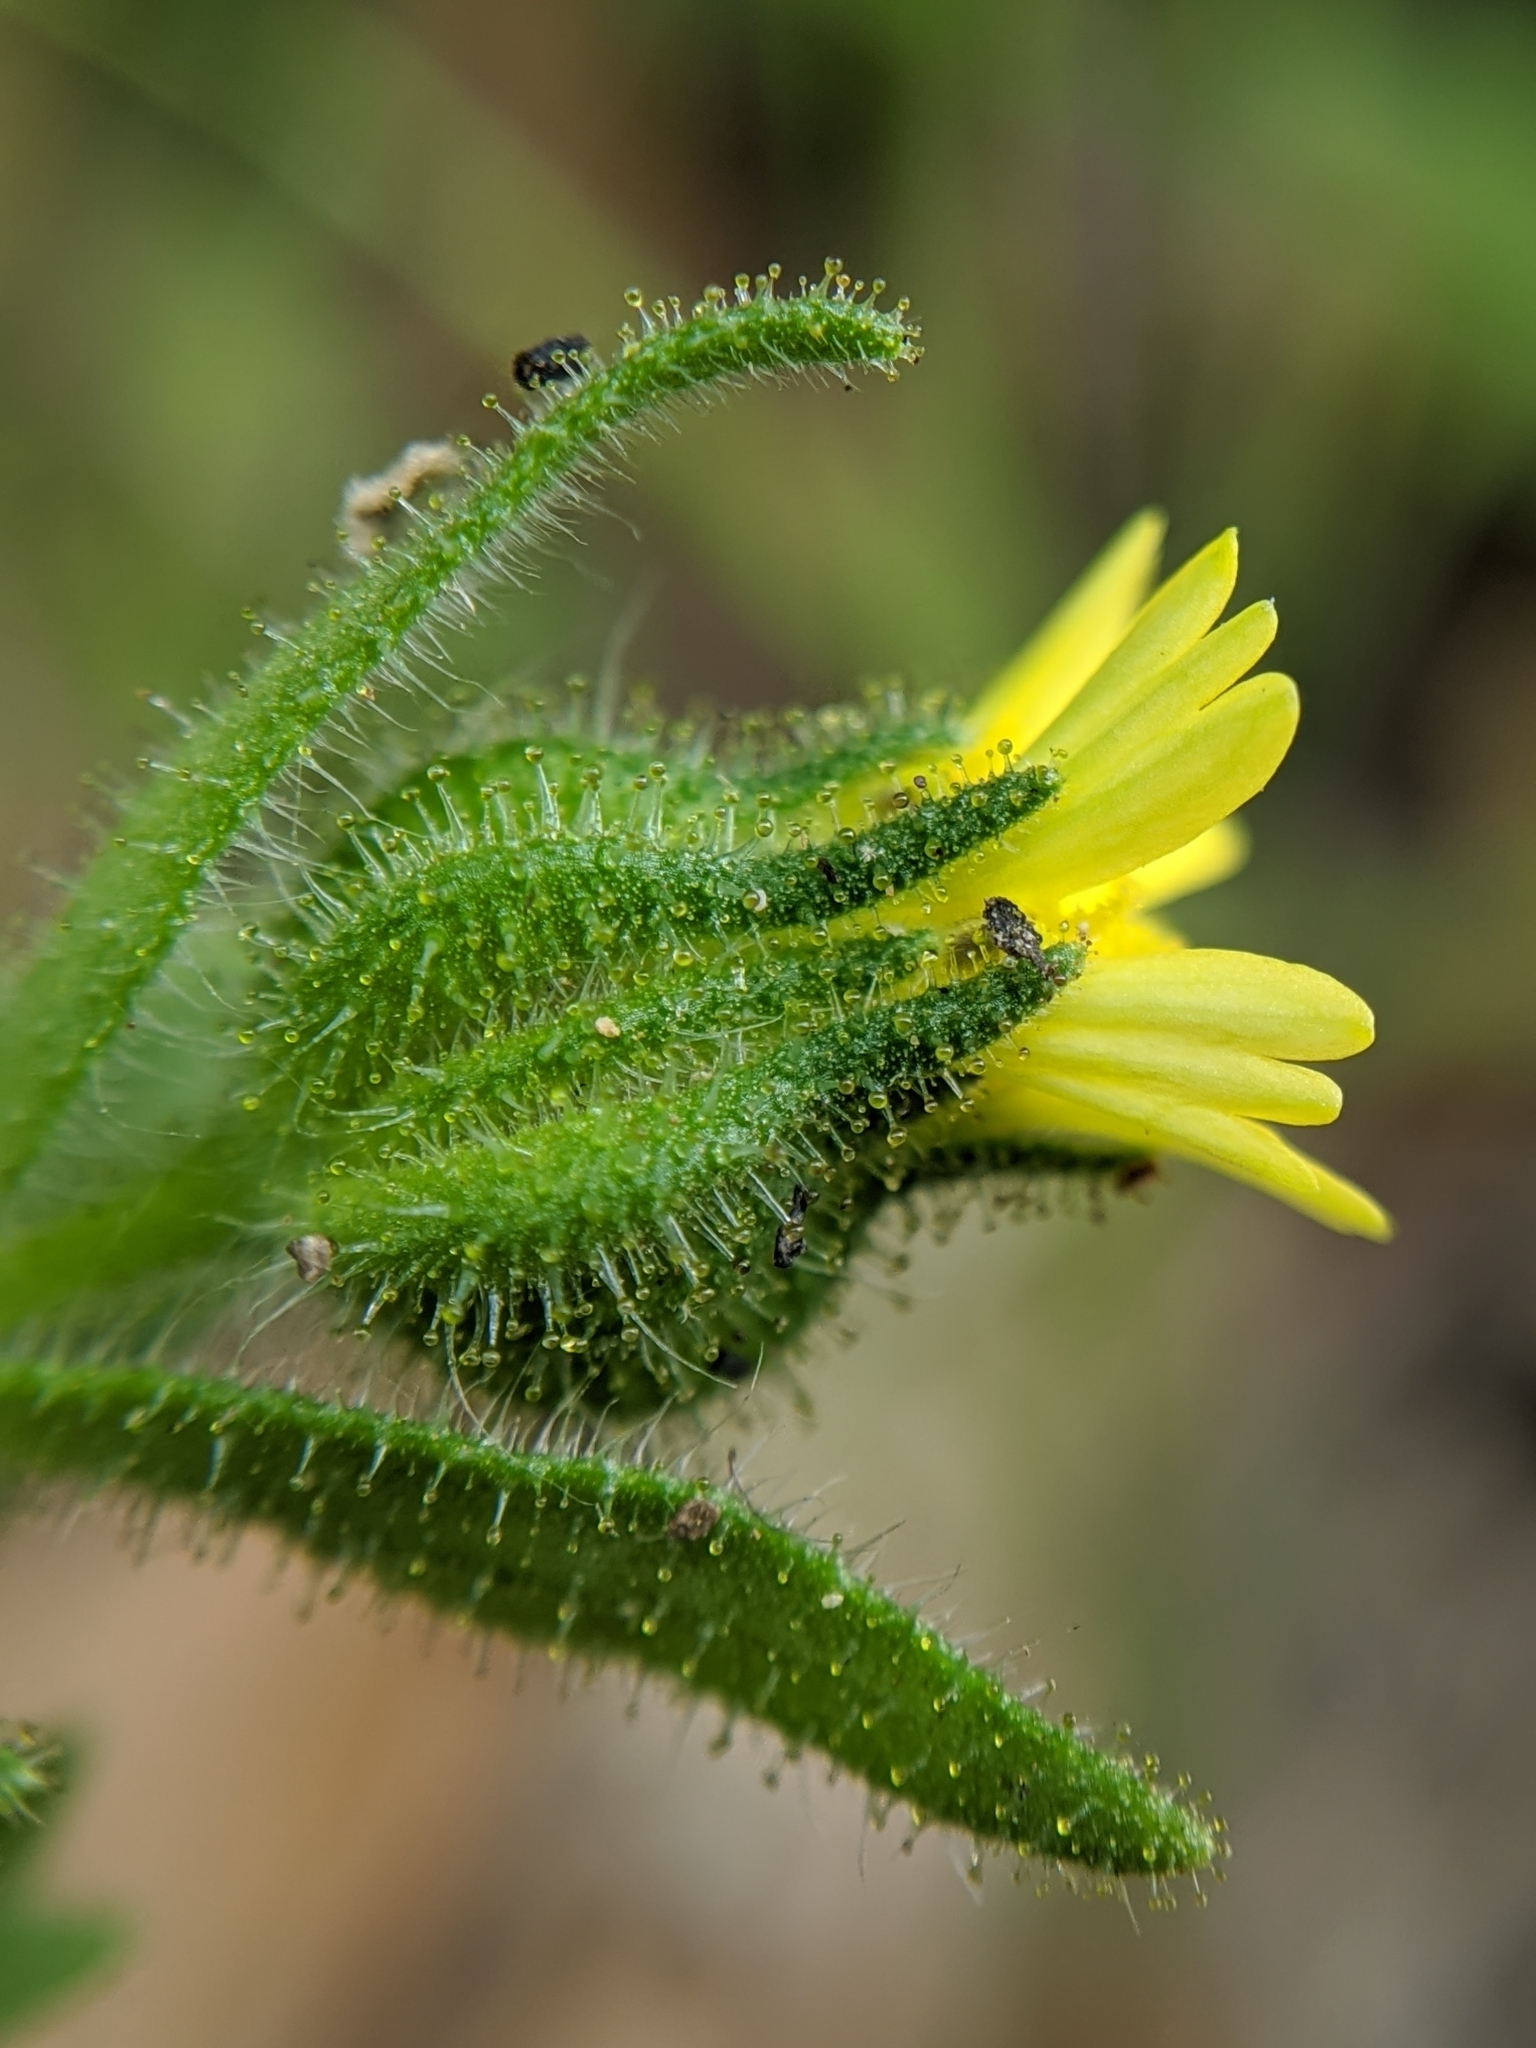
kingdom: Plantae
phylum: Tracheophyta
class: Magnoliopsida
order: Asterales
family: Asteraceae
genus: Madia
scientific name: Madia gracilis
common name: Grassy tarweed
